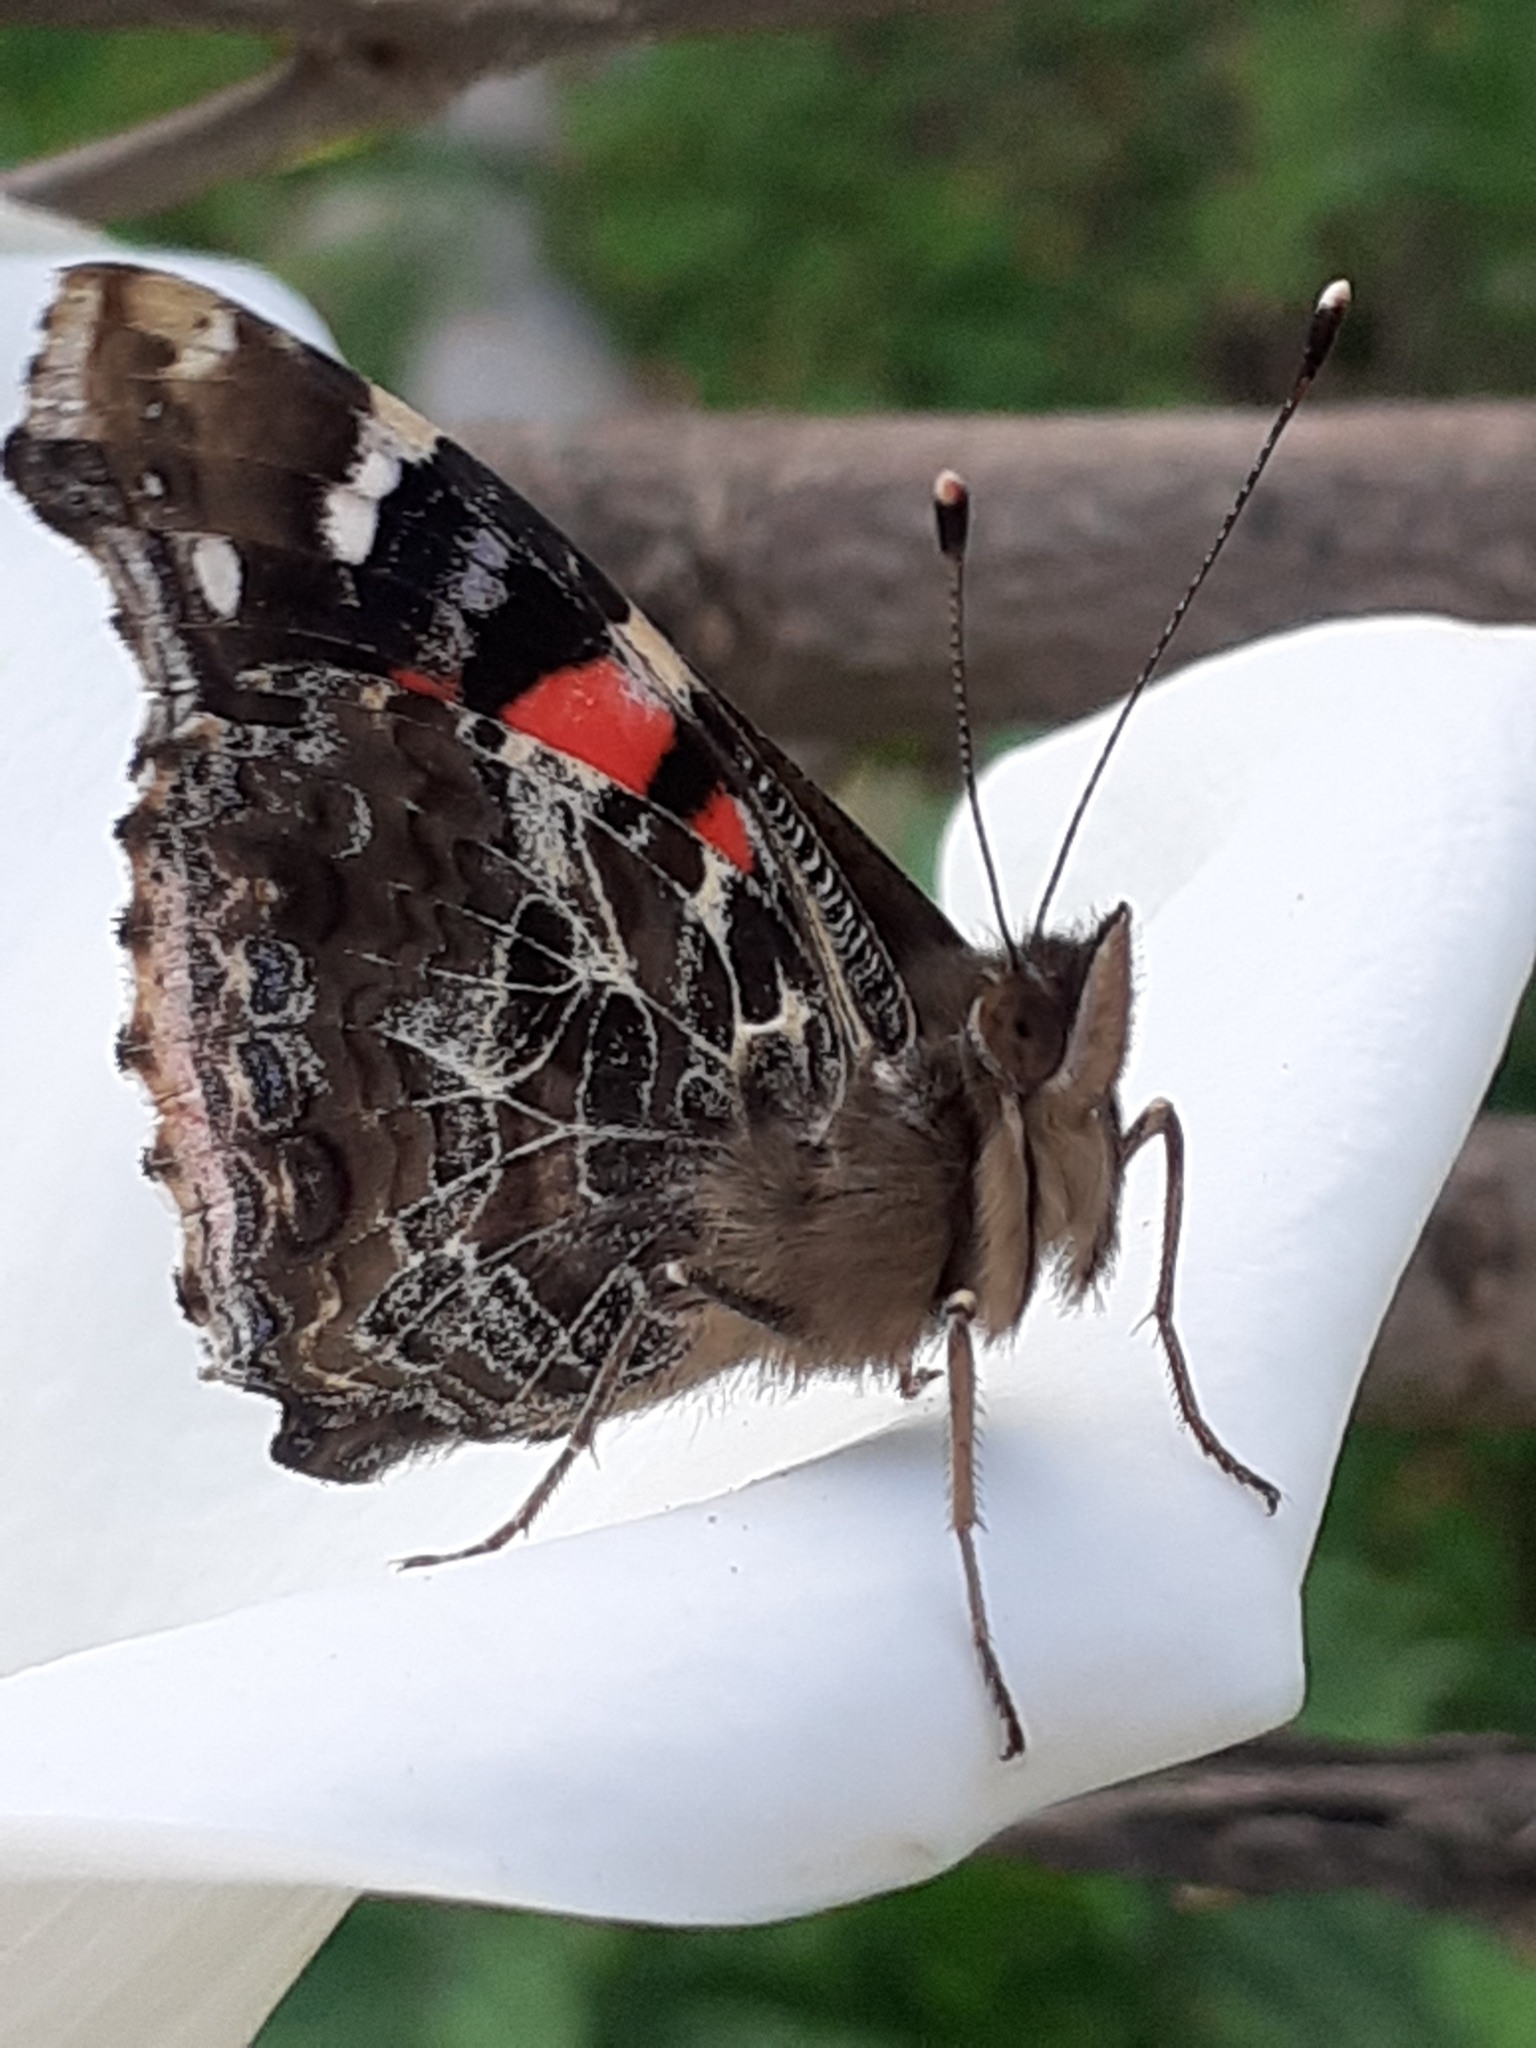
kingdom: Animalia
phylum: Arthropoda
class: Insecta
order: Lepidoptera
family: Nymphalidae
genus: Vanessa
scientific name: Vanessa vulcania
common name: Canary red admiral
